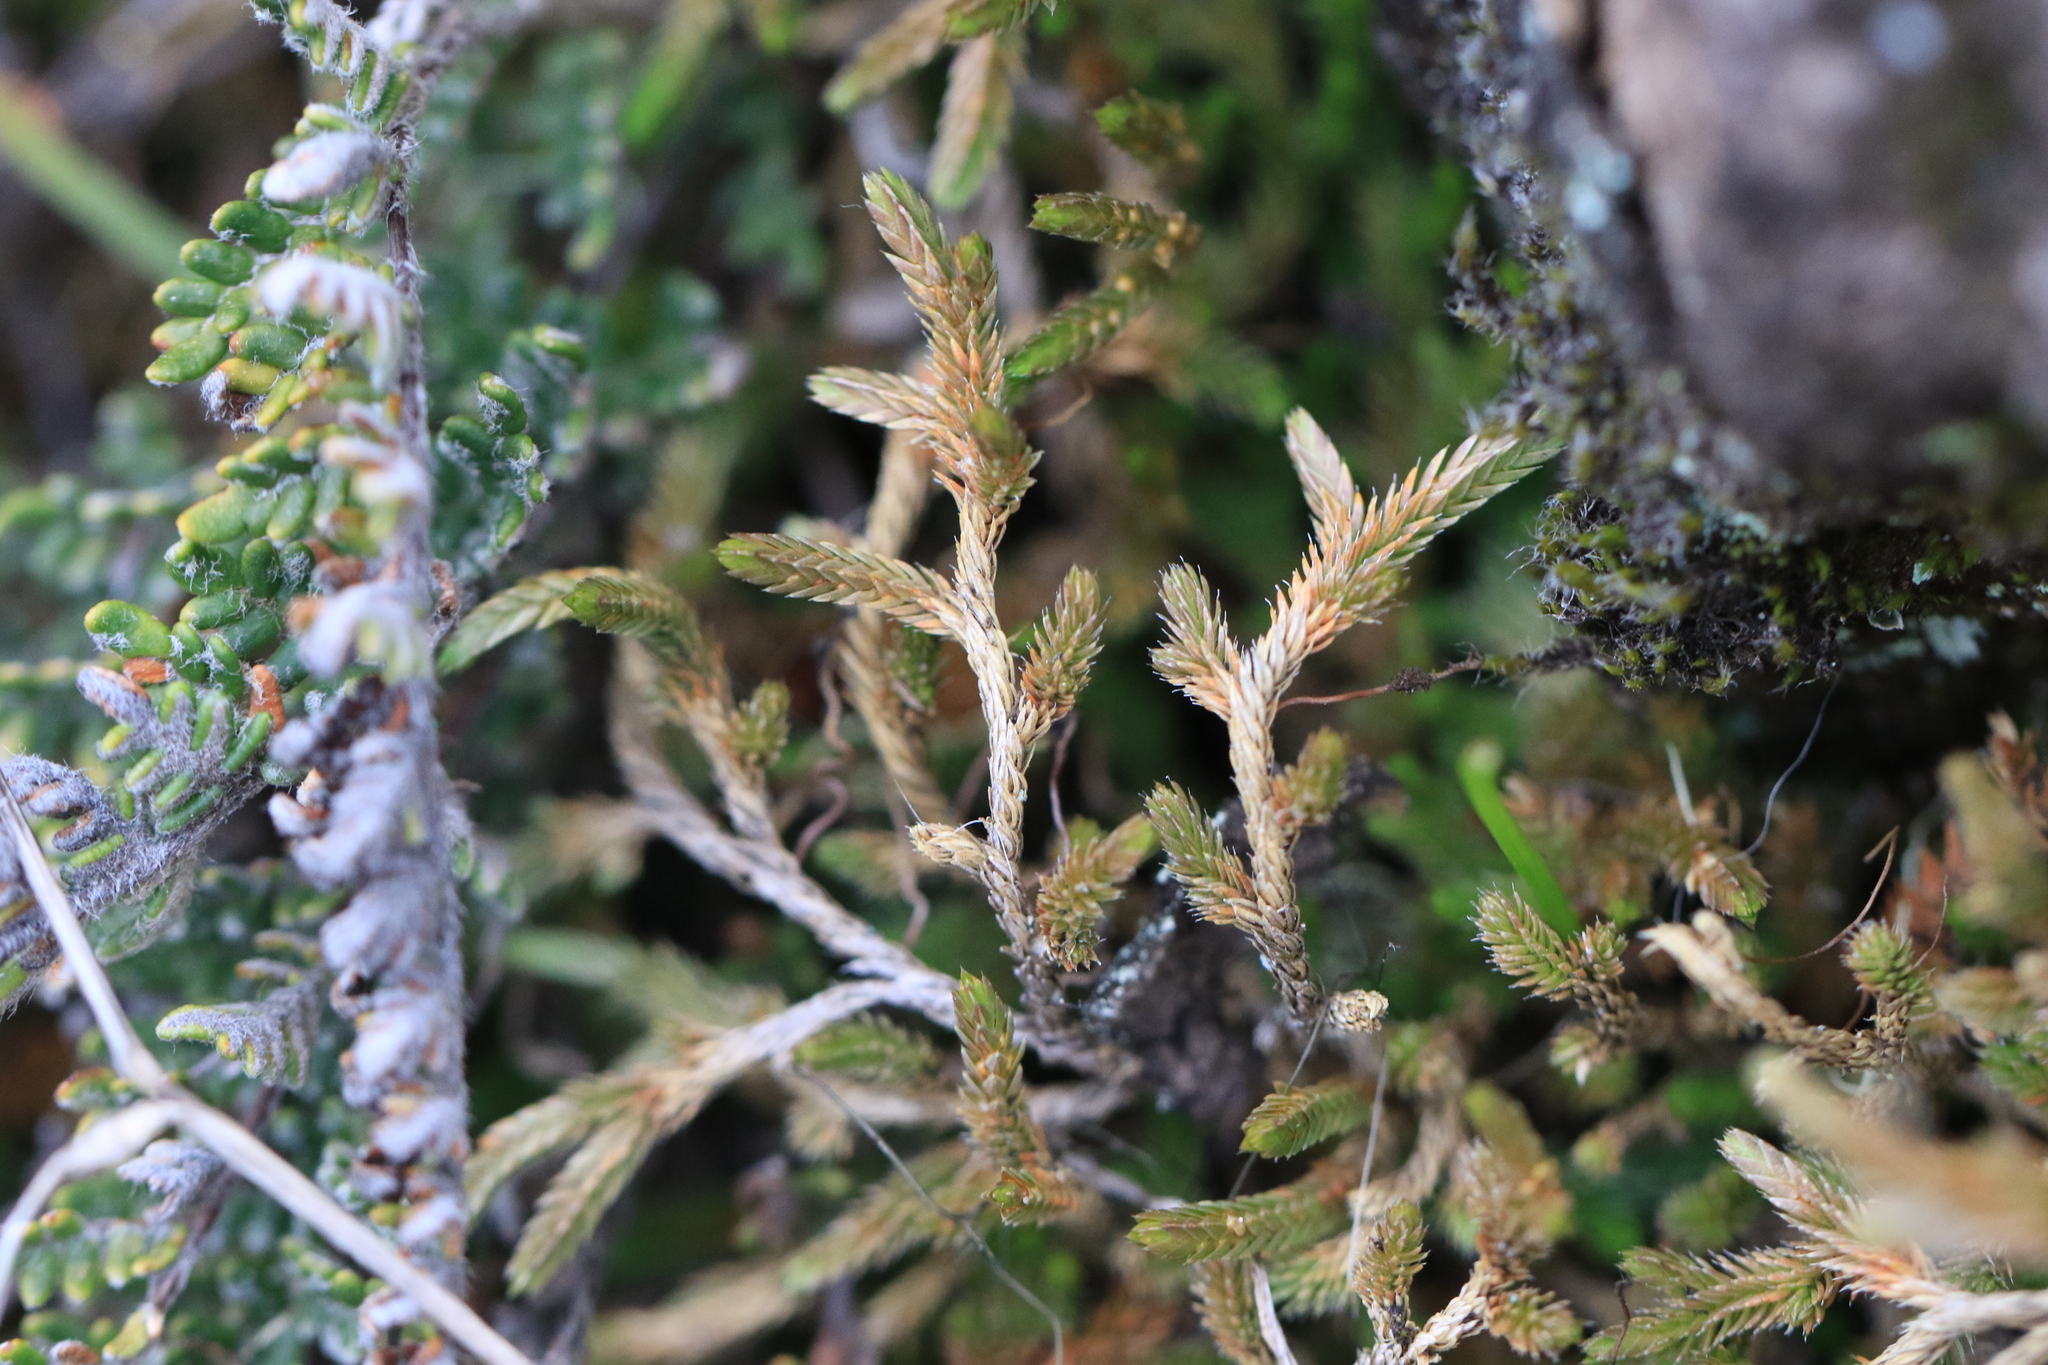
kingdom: Plantae
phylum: Tracheophyta
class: Lycopodiopsida
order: Selaginellales
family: Selaginellaceae
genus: Selaginella
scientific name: Selaginella wallacei
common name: Wallace's selaginella
